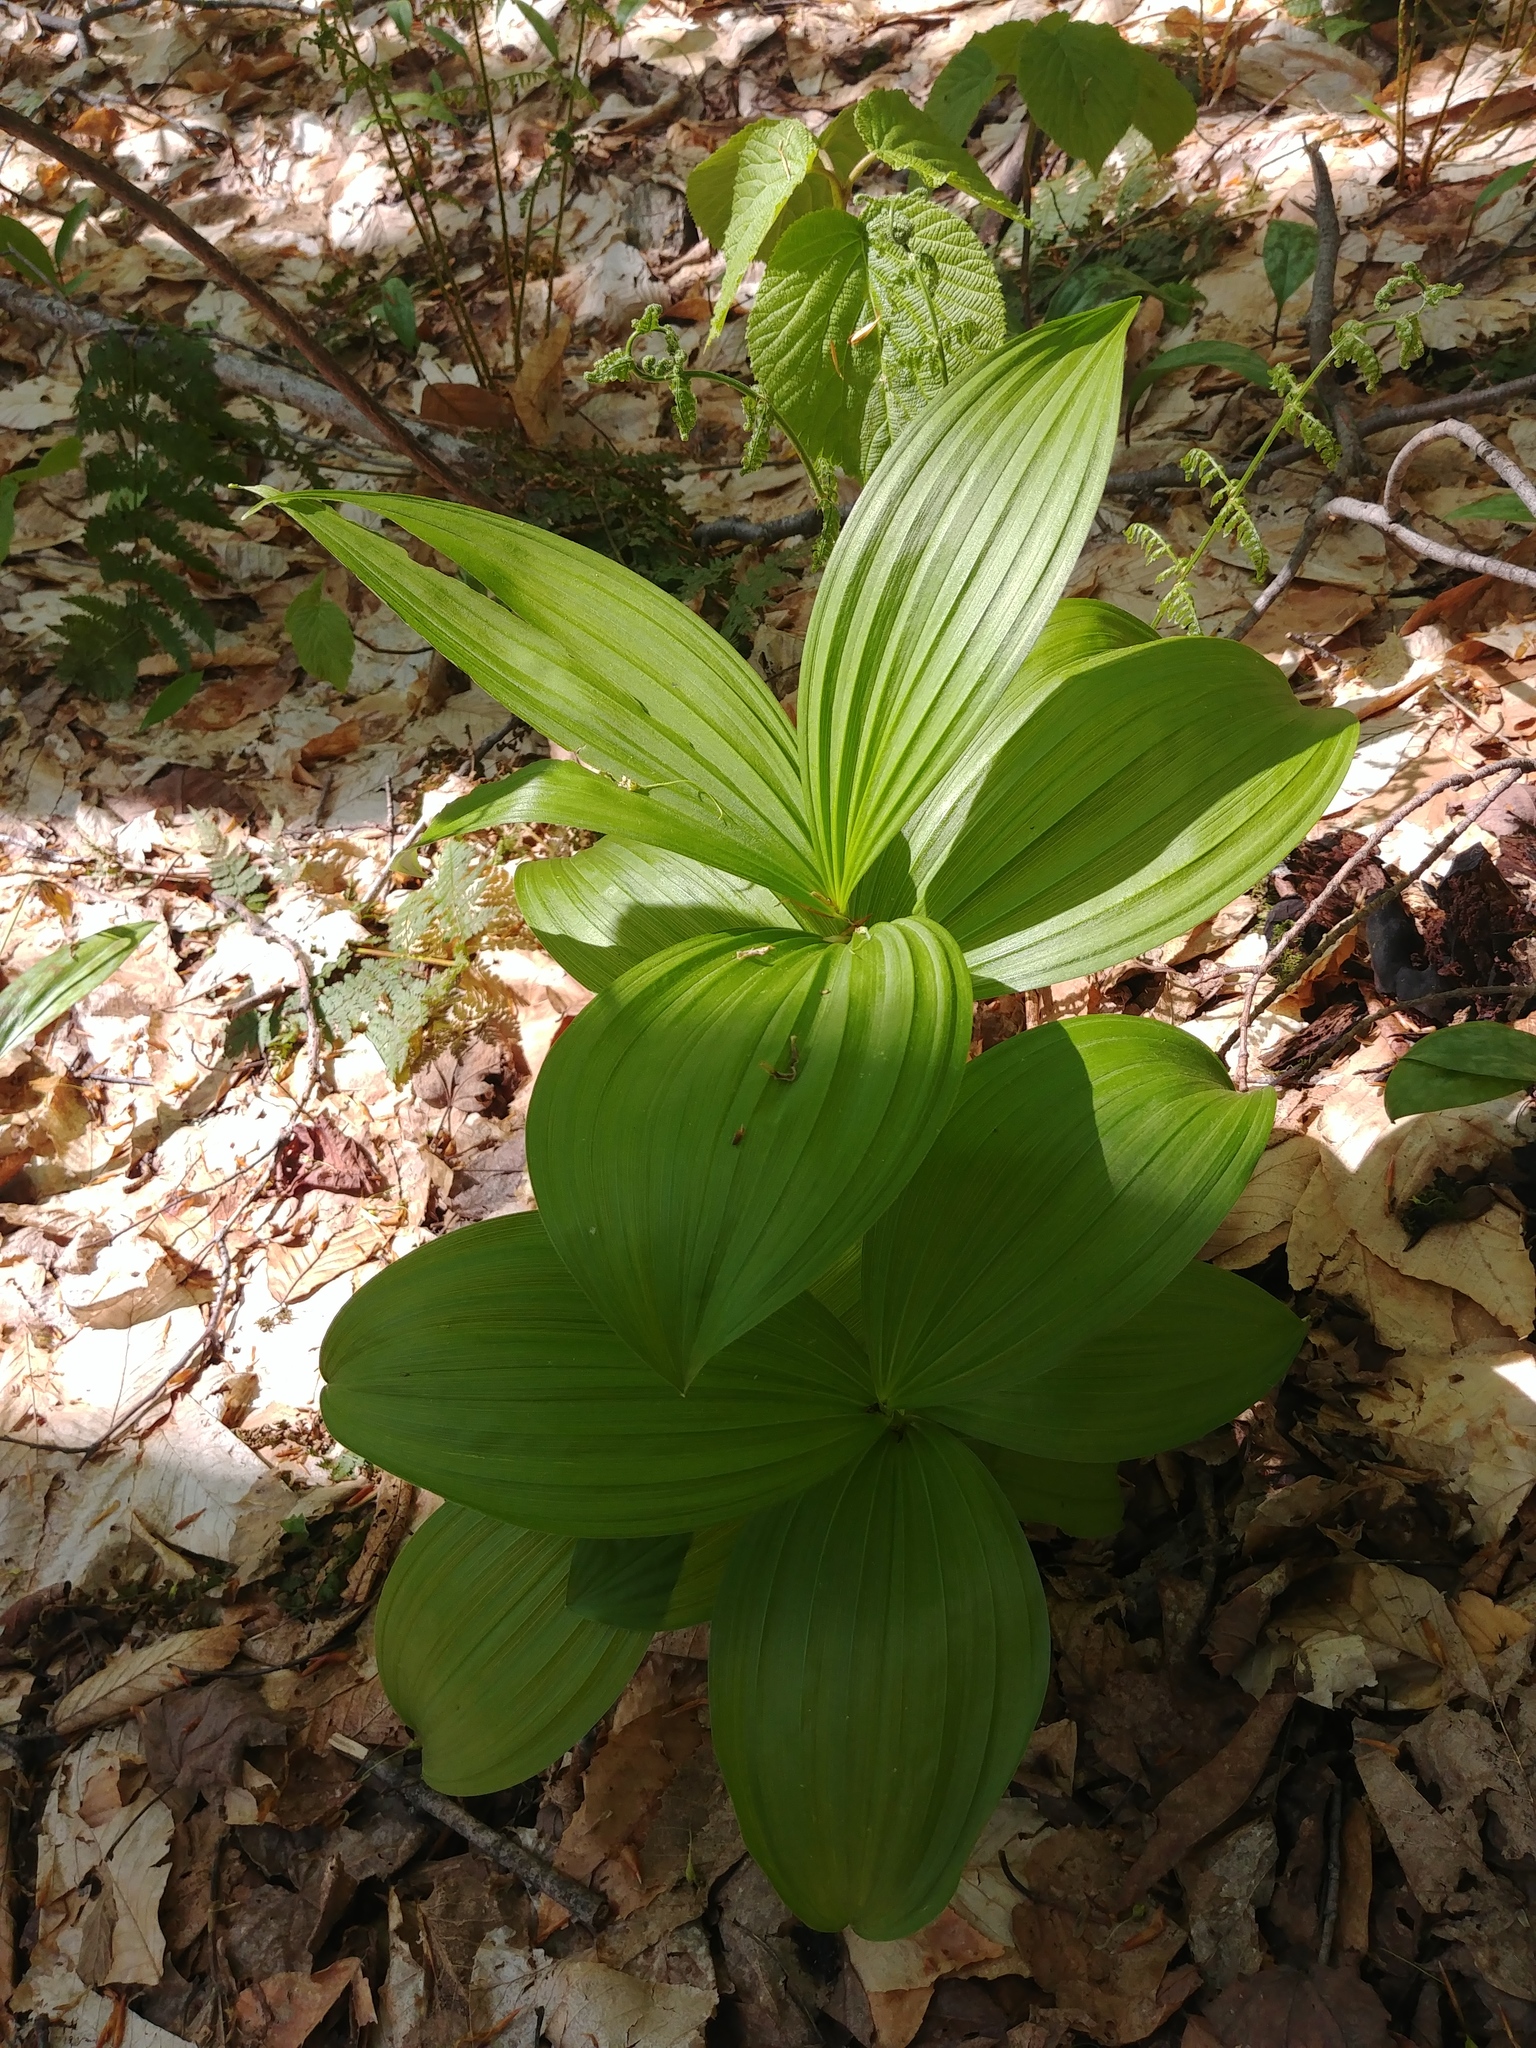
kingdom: Plantae
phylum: Tracheophyta
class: Liliopsida
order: Liliales
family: Melanthiaceae
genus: Veratrum
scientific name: Veratrum viride
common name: American false hellebore
